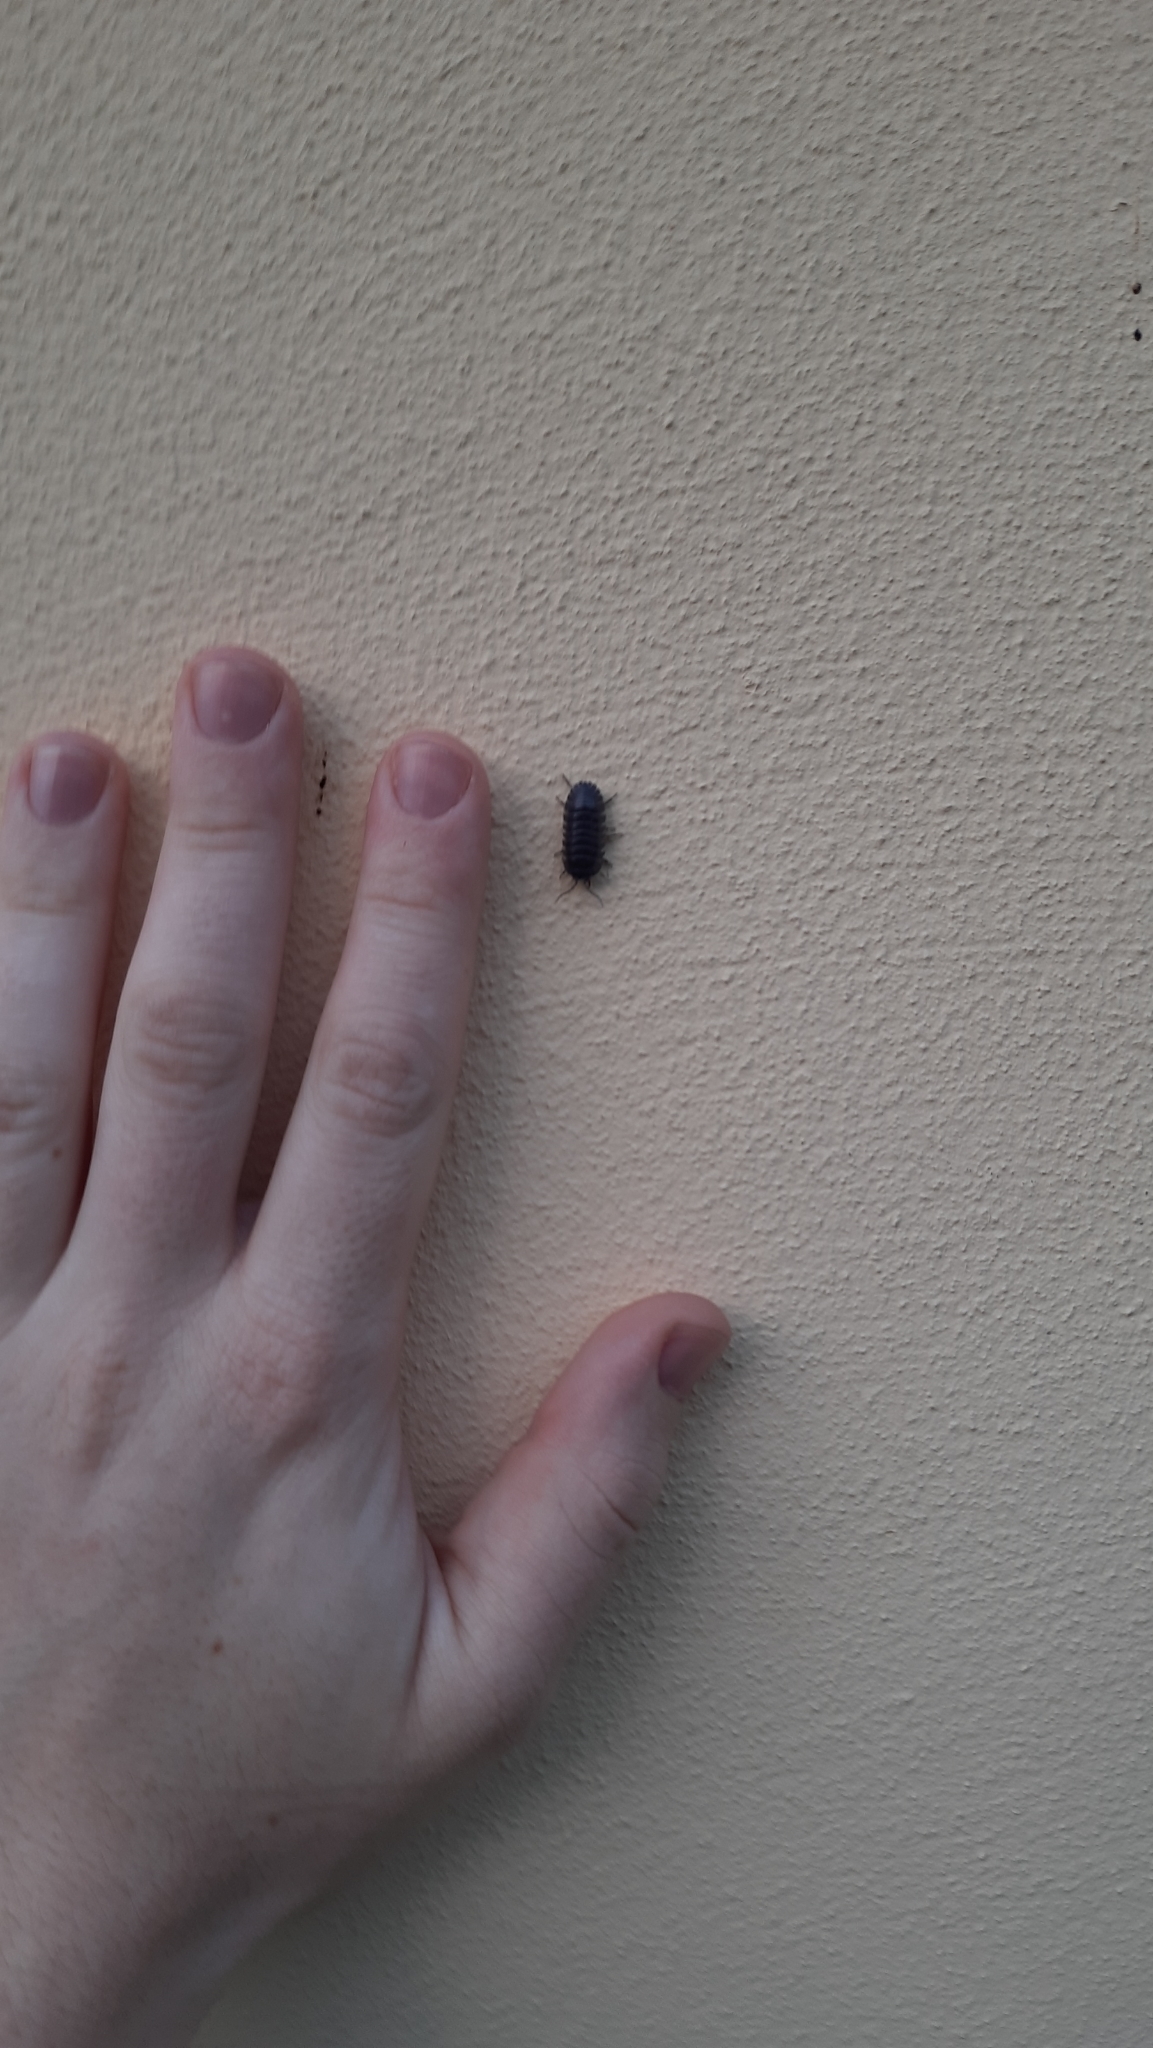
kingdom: Animalia
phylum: Arthropoda
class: Malacostraca
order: Isopoda
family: Armadillidiidae
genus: Armadillidium
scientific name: Armadillidium depressum
